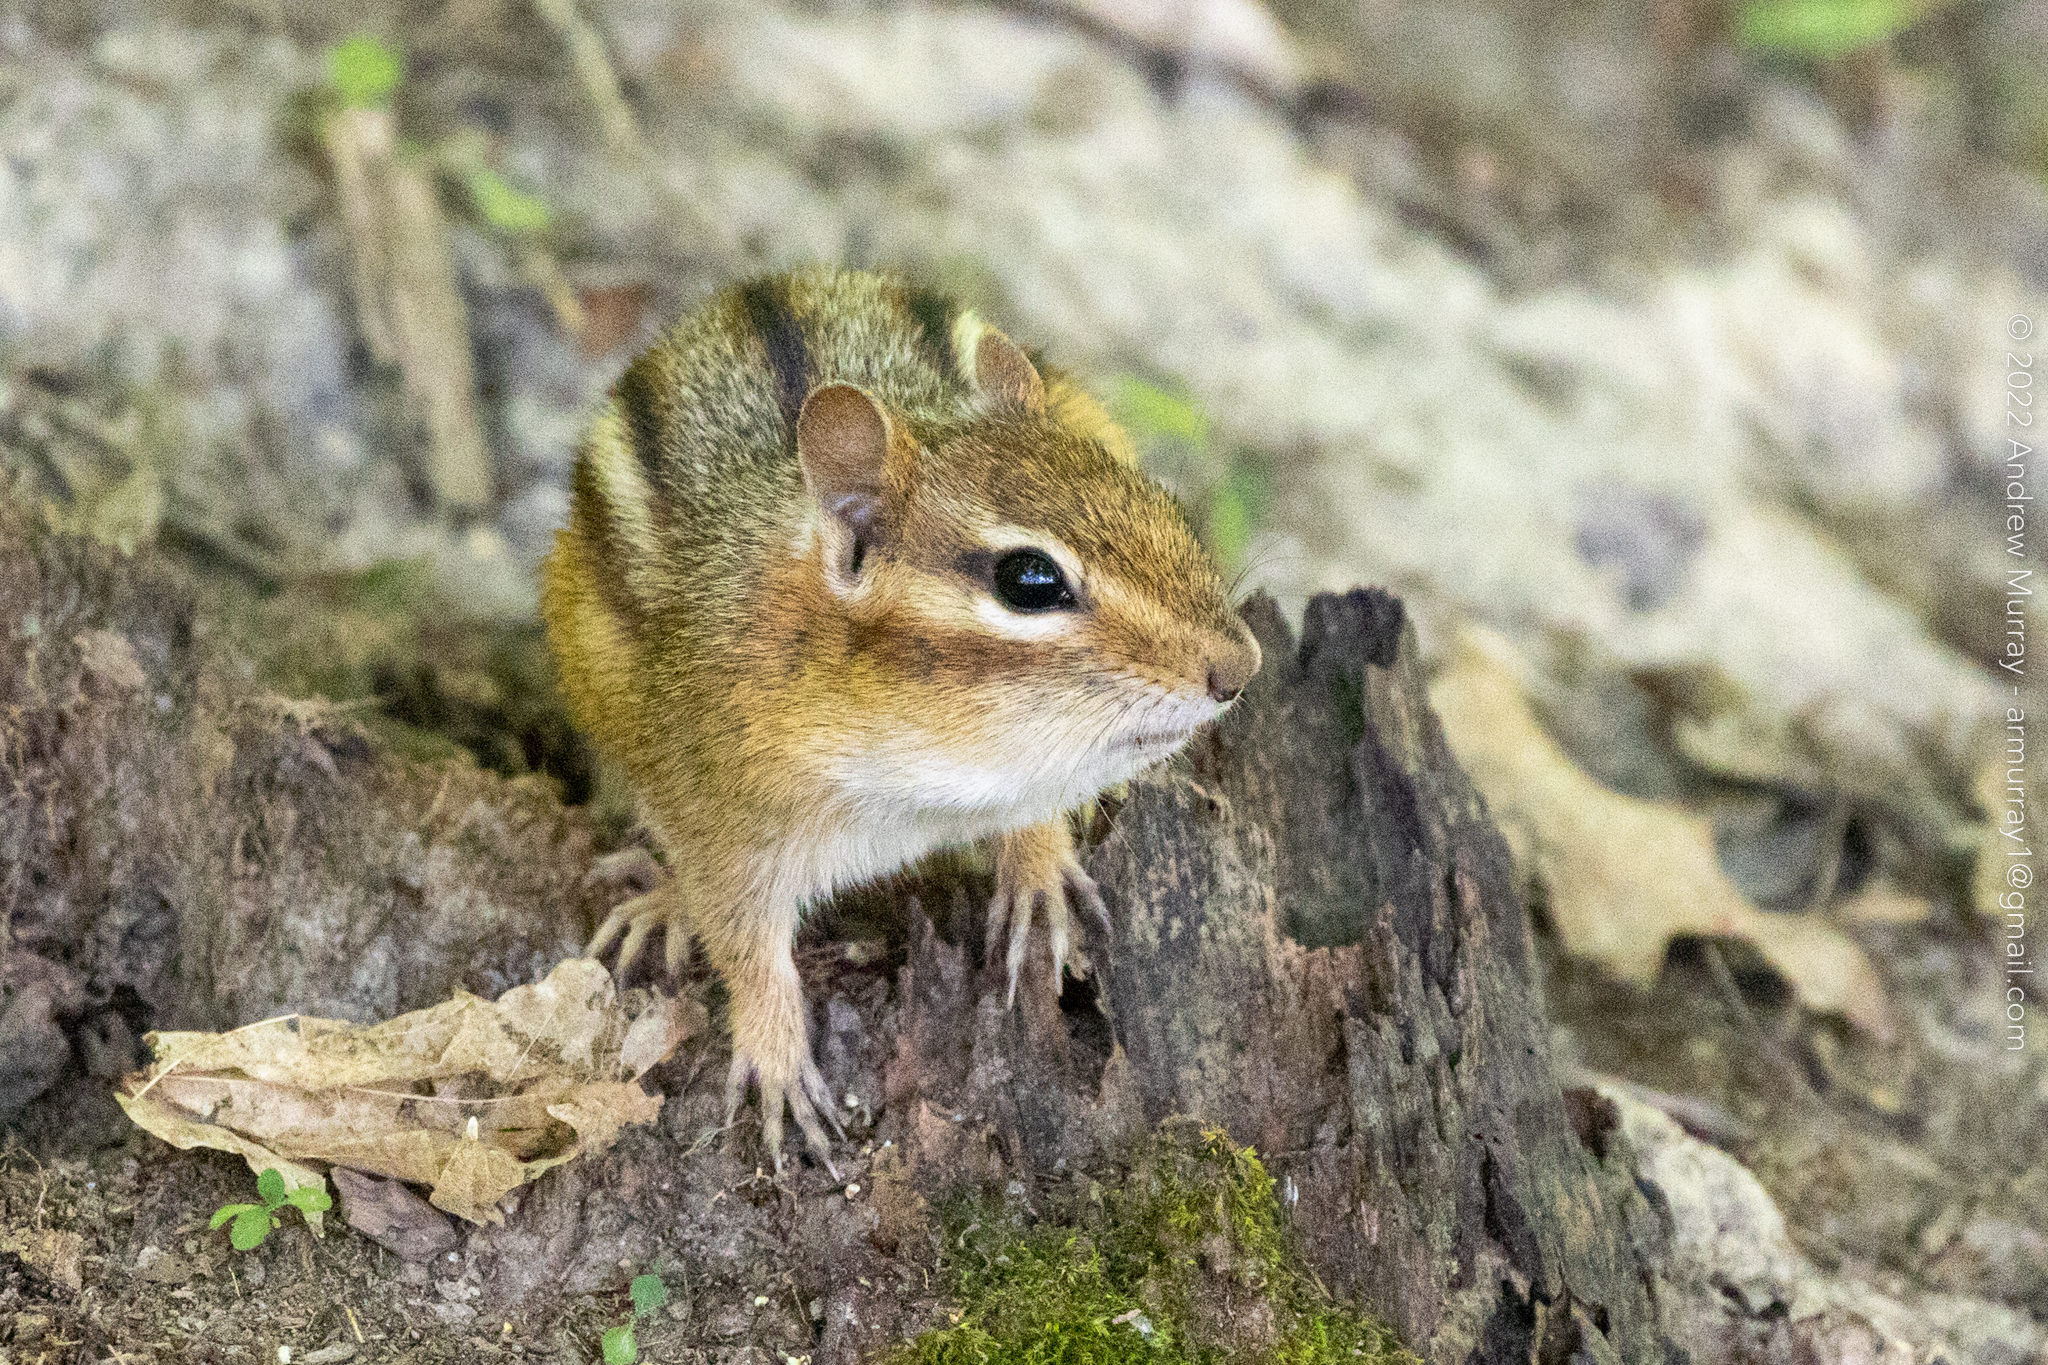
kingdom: Animalia
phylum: Chordata
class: Mammalia
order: Rodentia
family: Sciuridae
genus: Tamias
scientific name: Tamias striatus
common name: Eastern chipmunk
